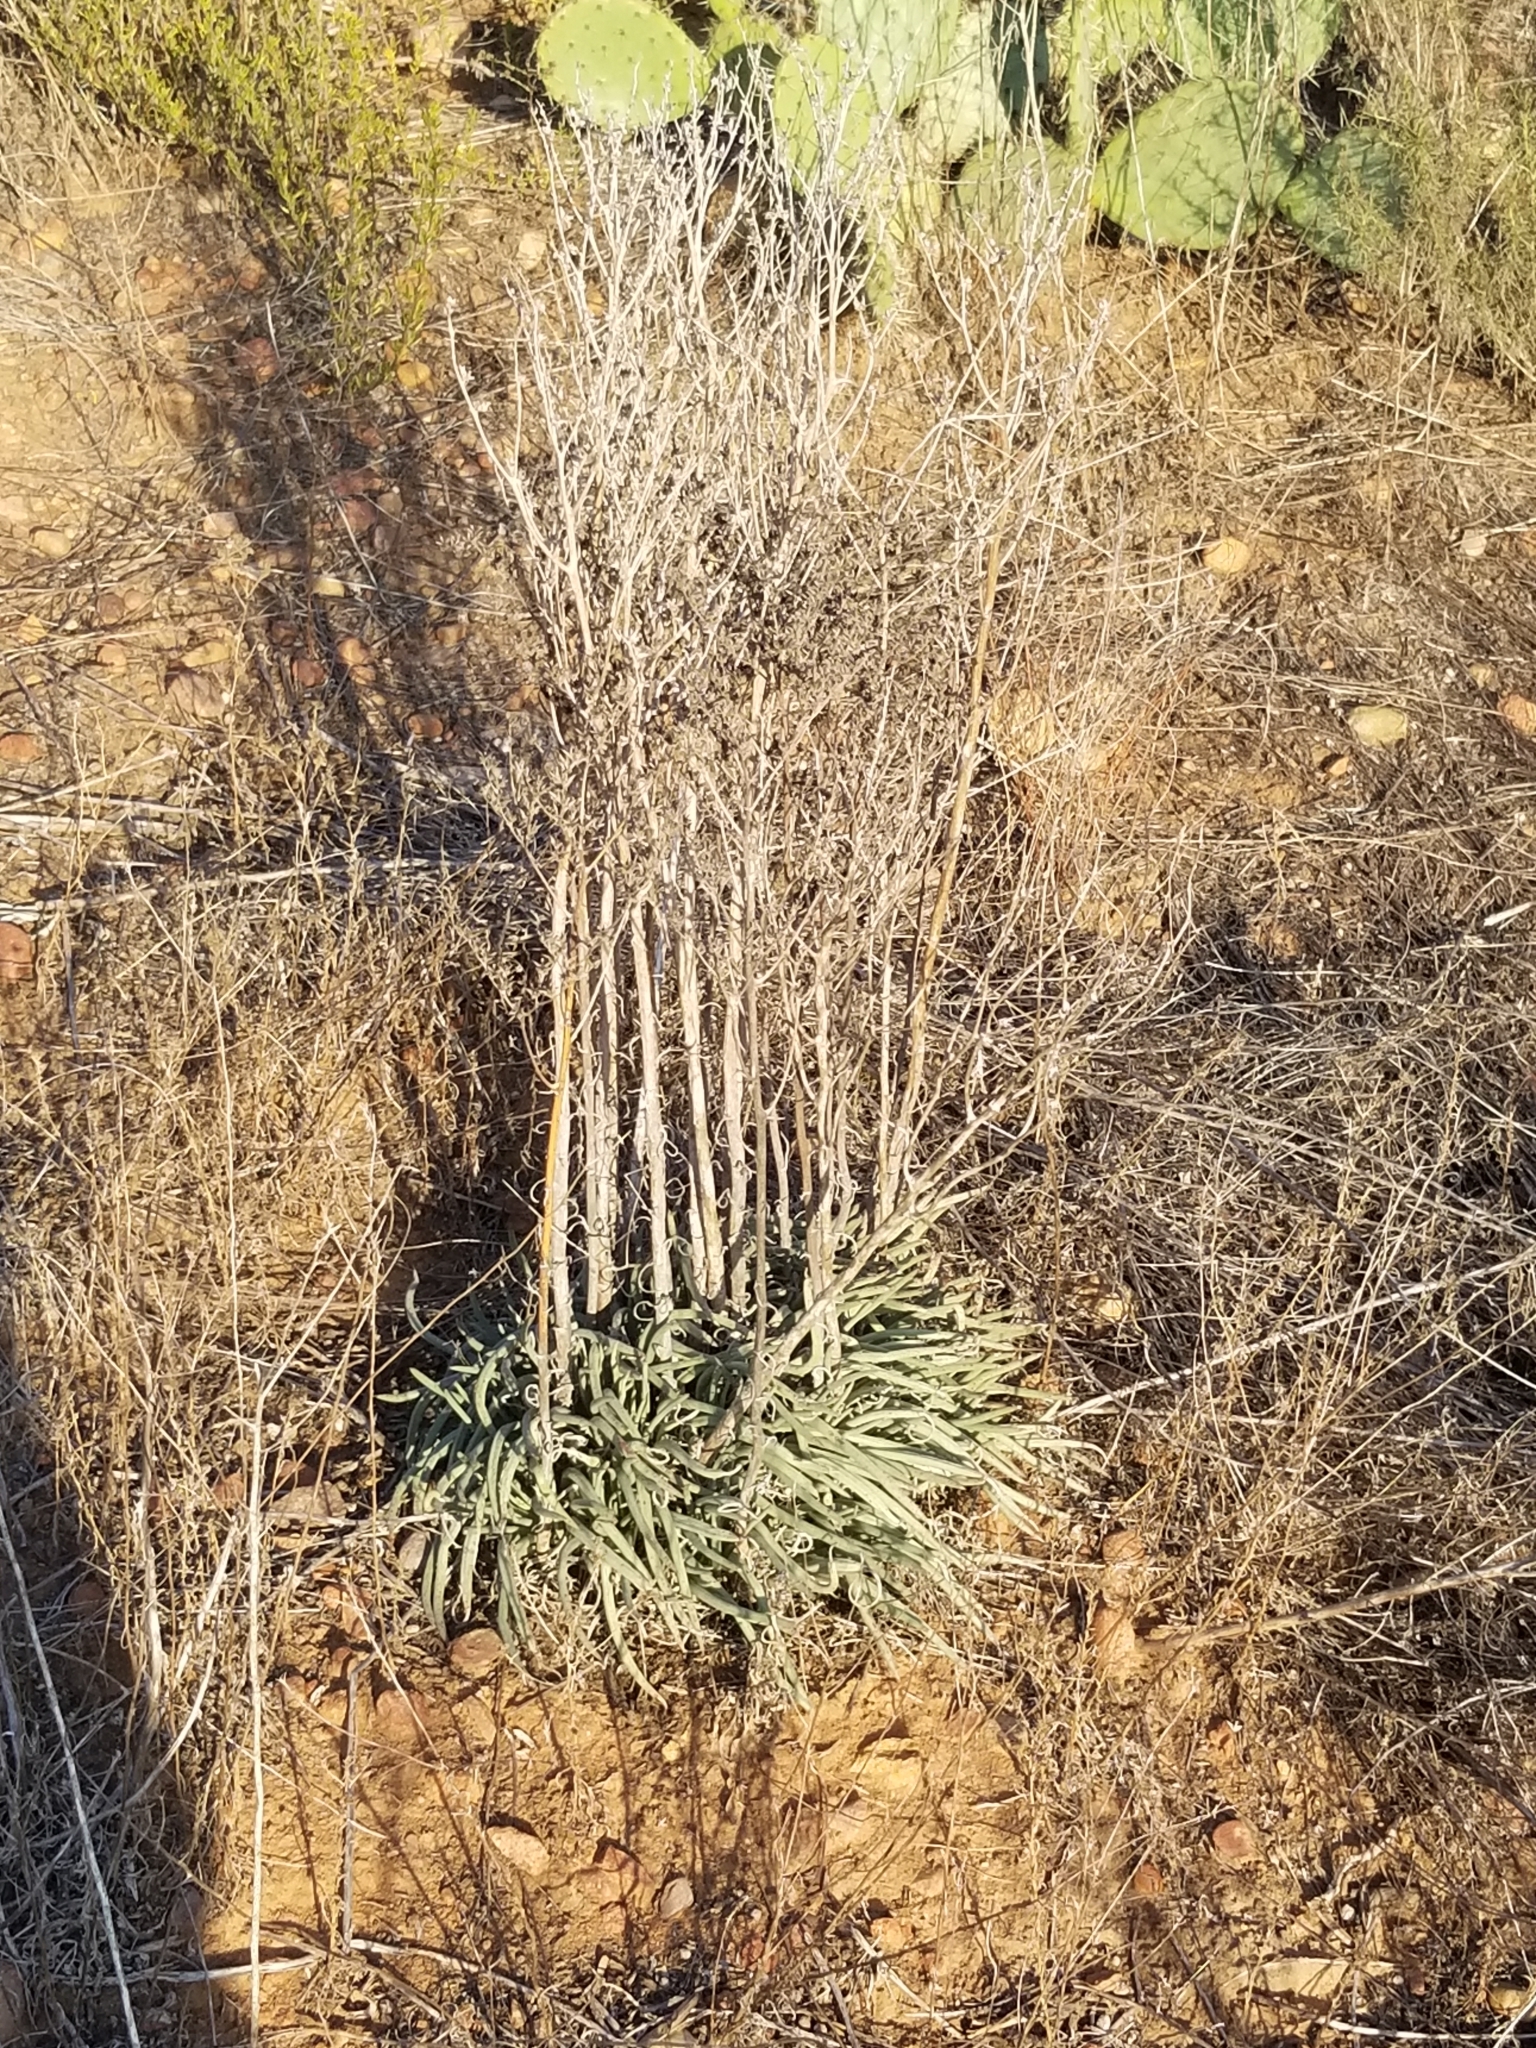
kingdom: Plantae
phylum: Tracheophyta
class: Magnoliopsida
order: Saxifragales
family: Crassulaceae
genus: Dudleya
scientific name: Dudleya edulis
